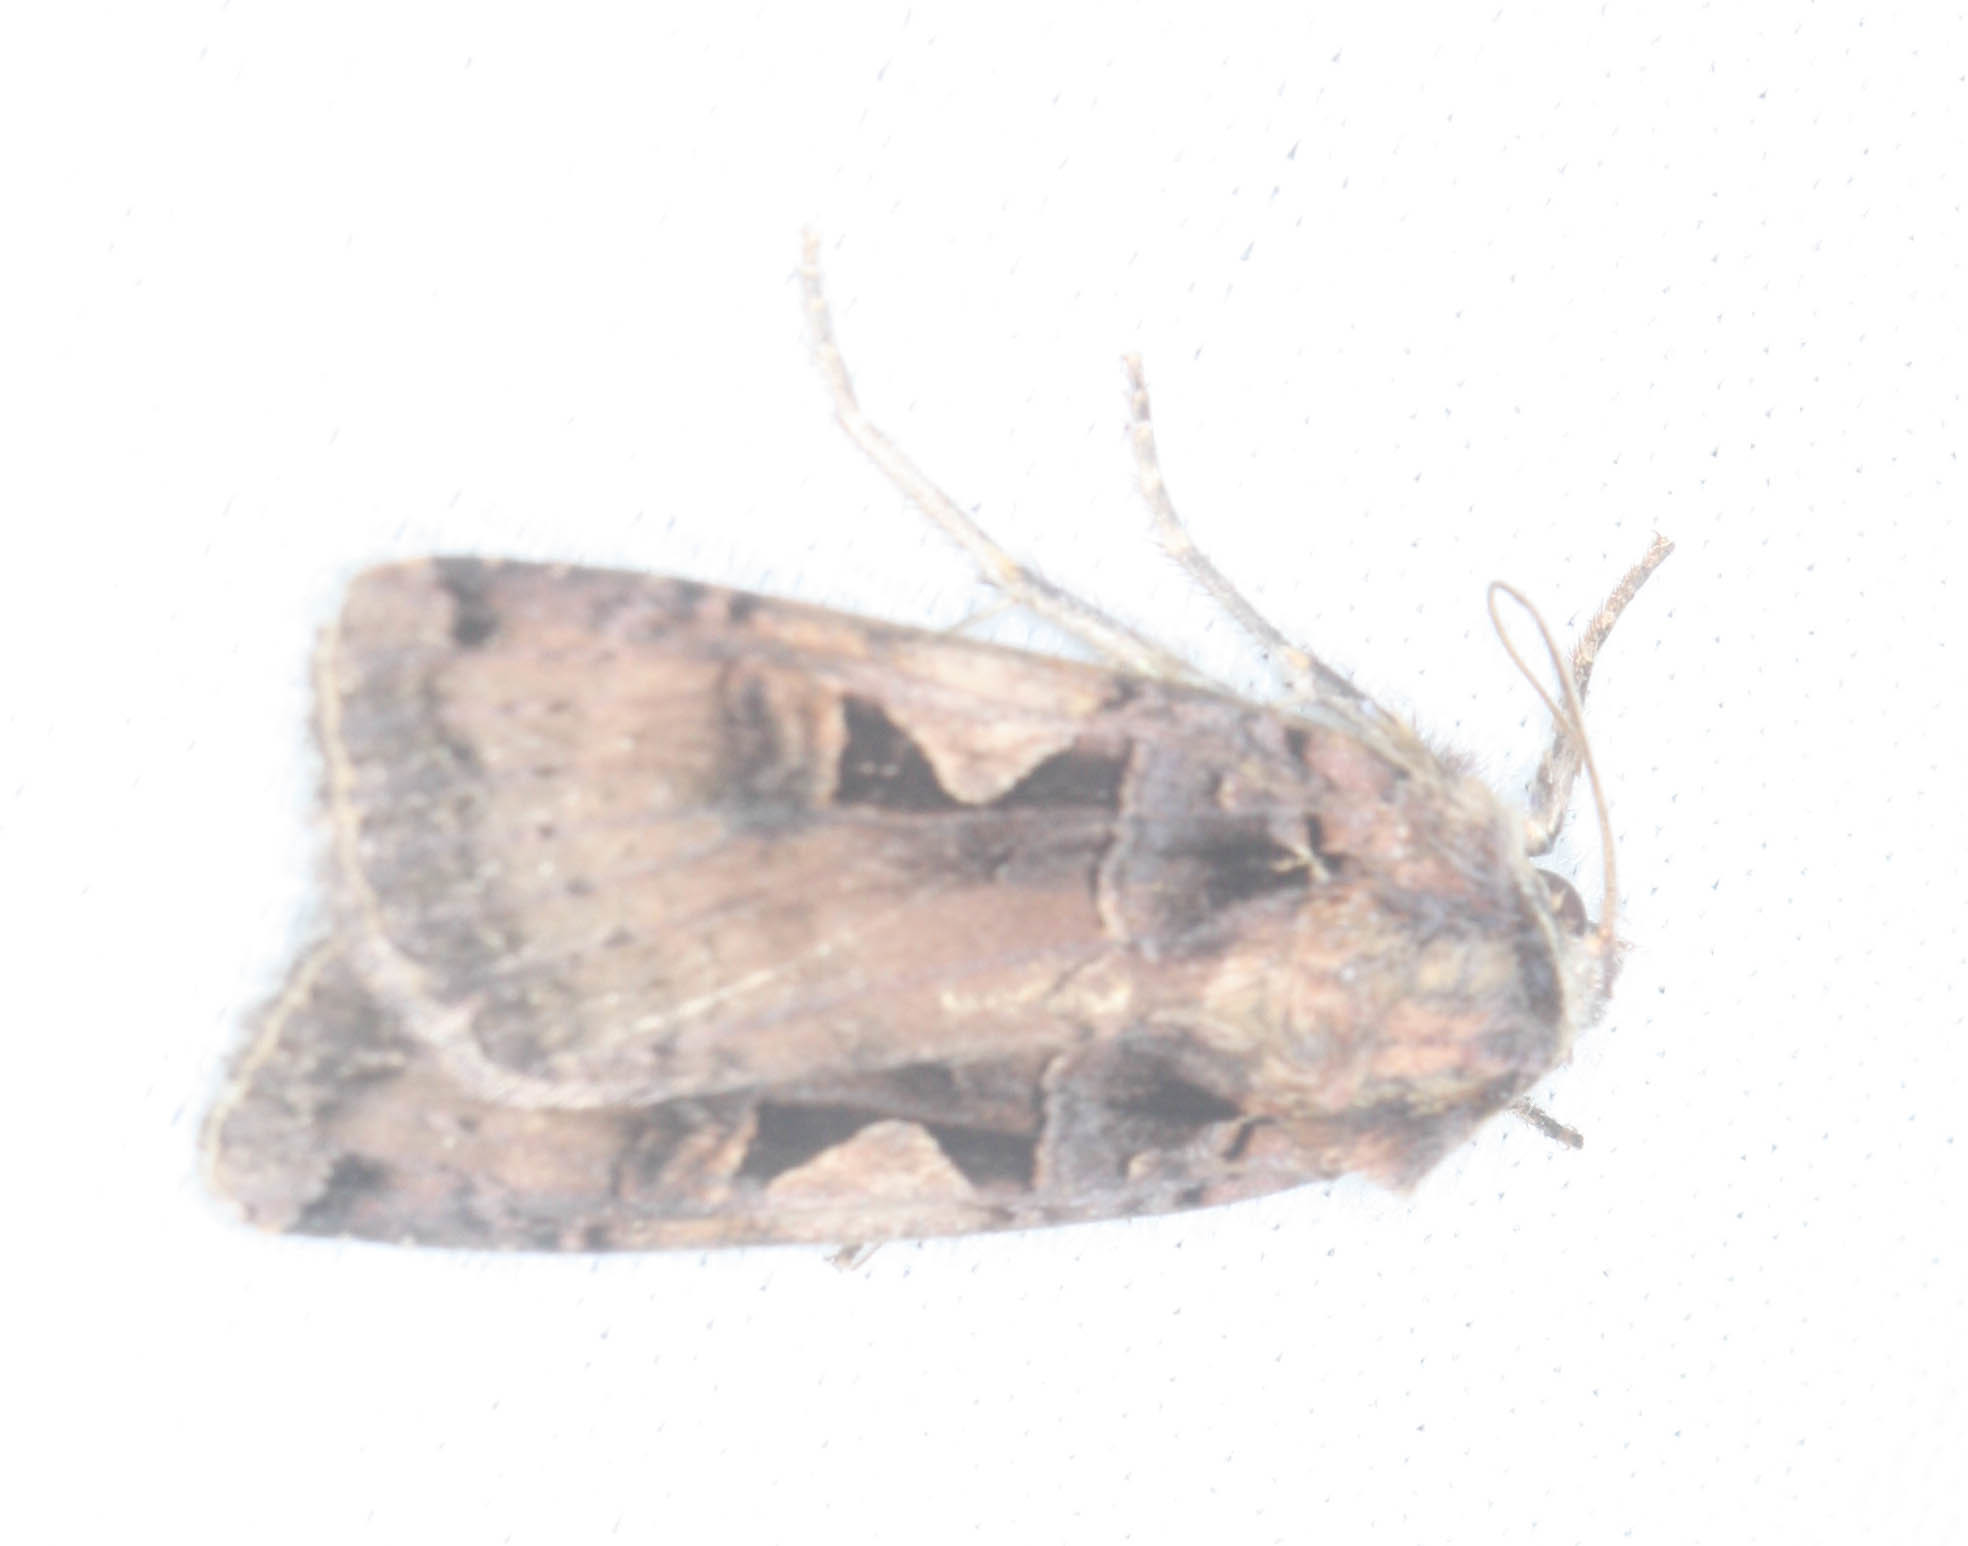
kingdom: Animalia
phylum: Arthropoda
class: Insecta
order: Lepidoptera
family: Noctuidae
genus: Xestia
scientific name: Xestia c-nigrum
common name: Setaceous hebrew character
